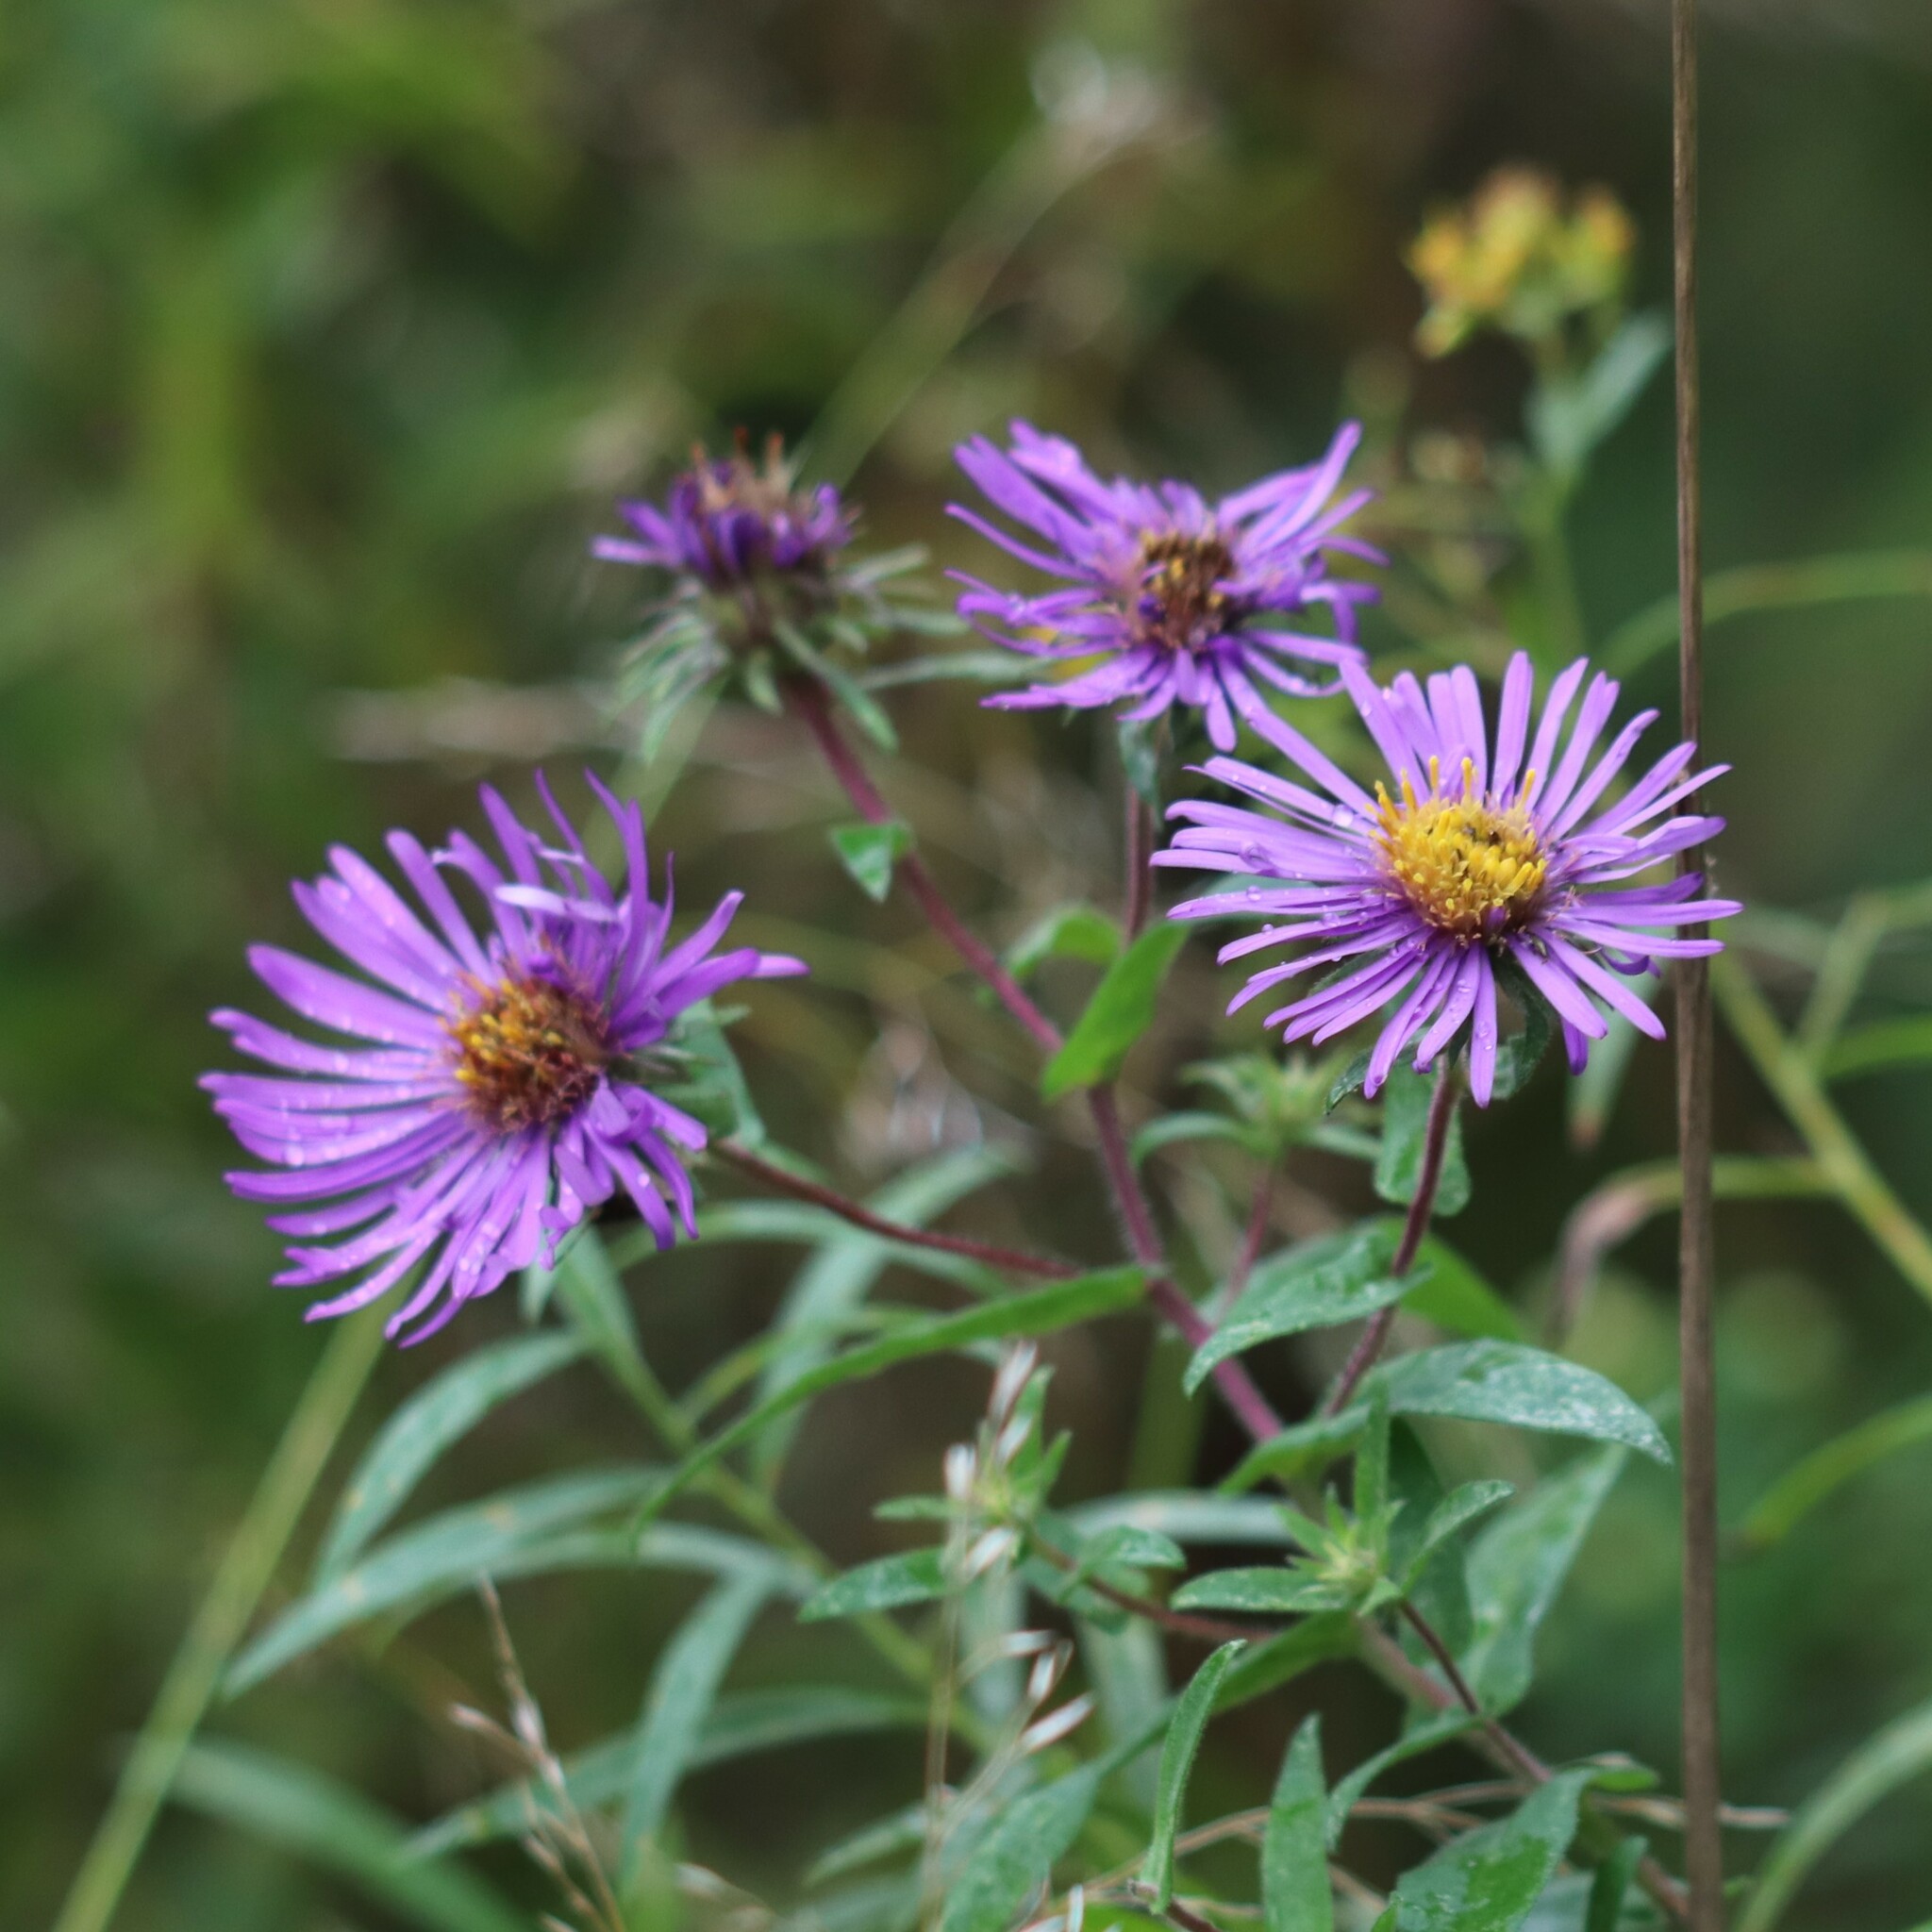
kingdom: Plantae
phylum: Tracheophyta
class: Magnoliopsida
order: Asterales
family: Asteraceae
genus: Symphyotrichum
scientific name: Symphyotrichum novae-angliae
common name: Michaelmas daisy
